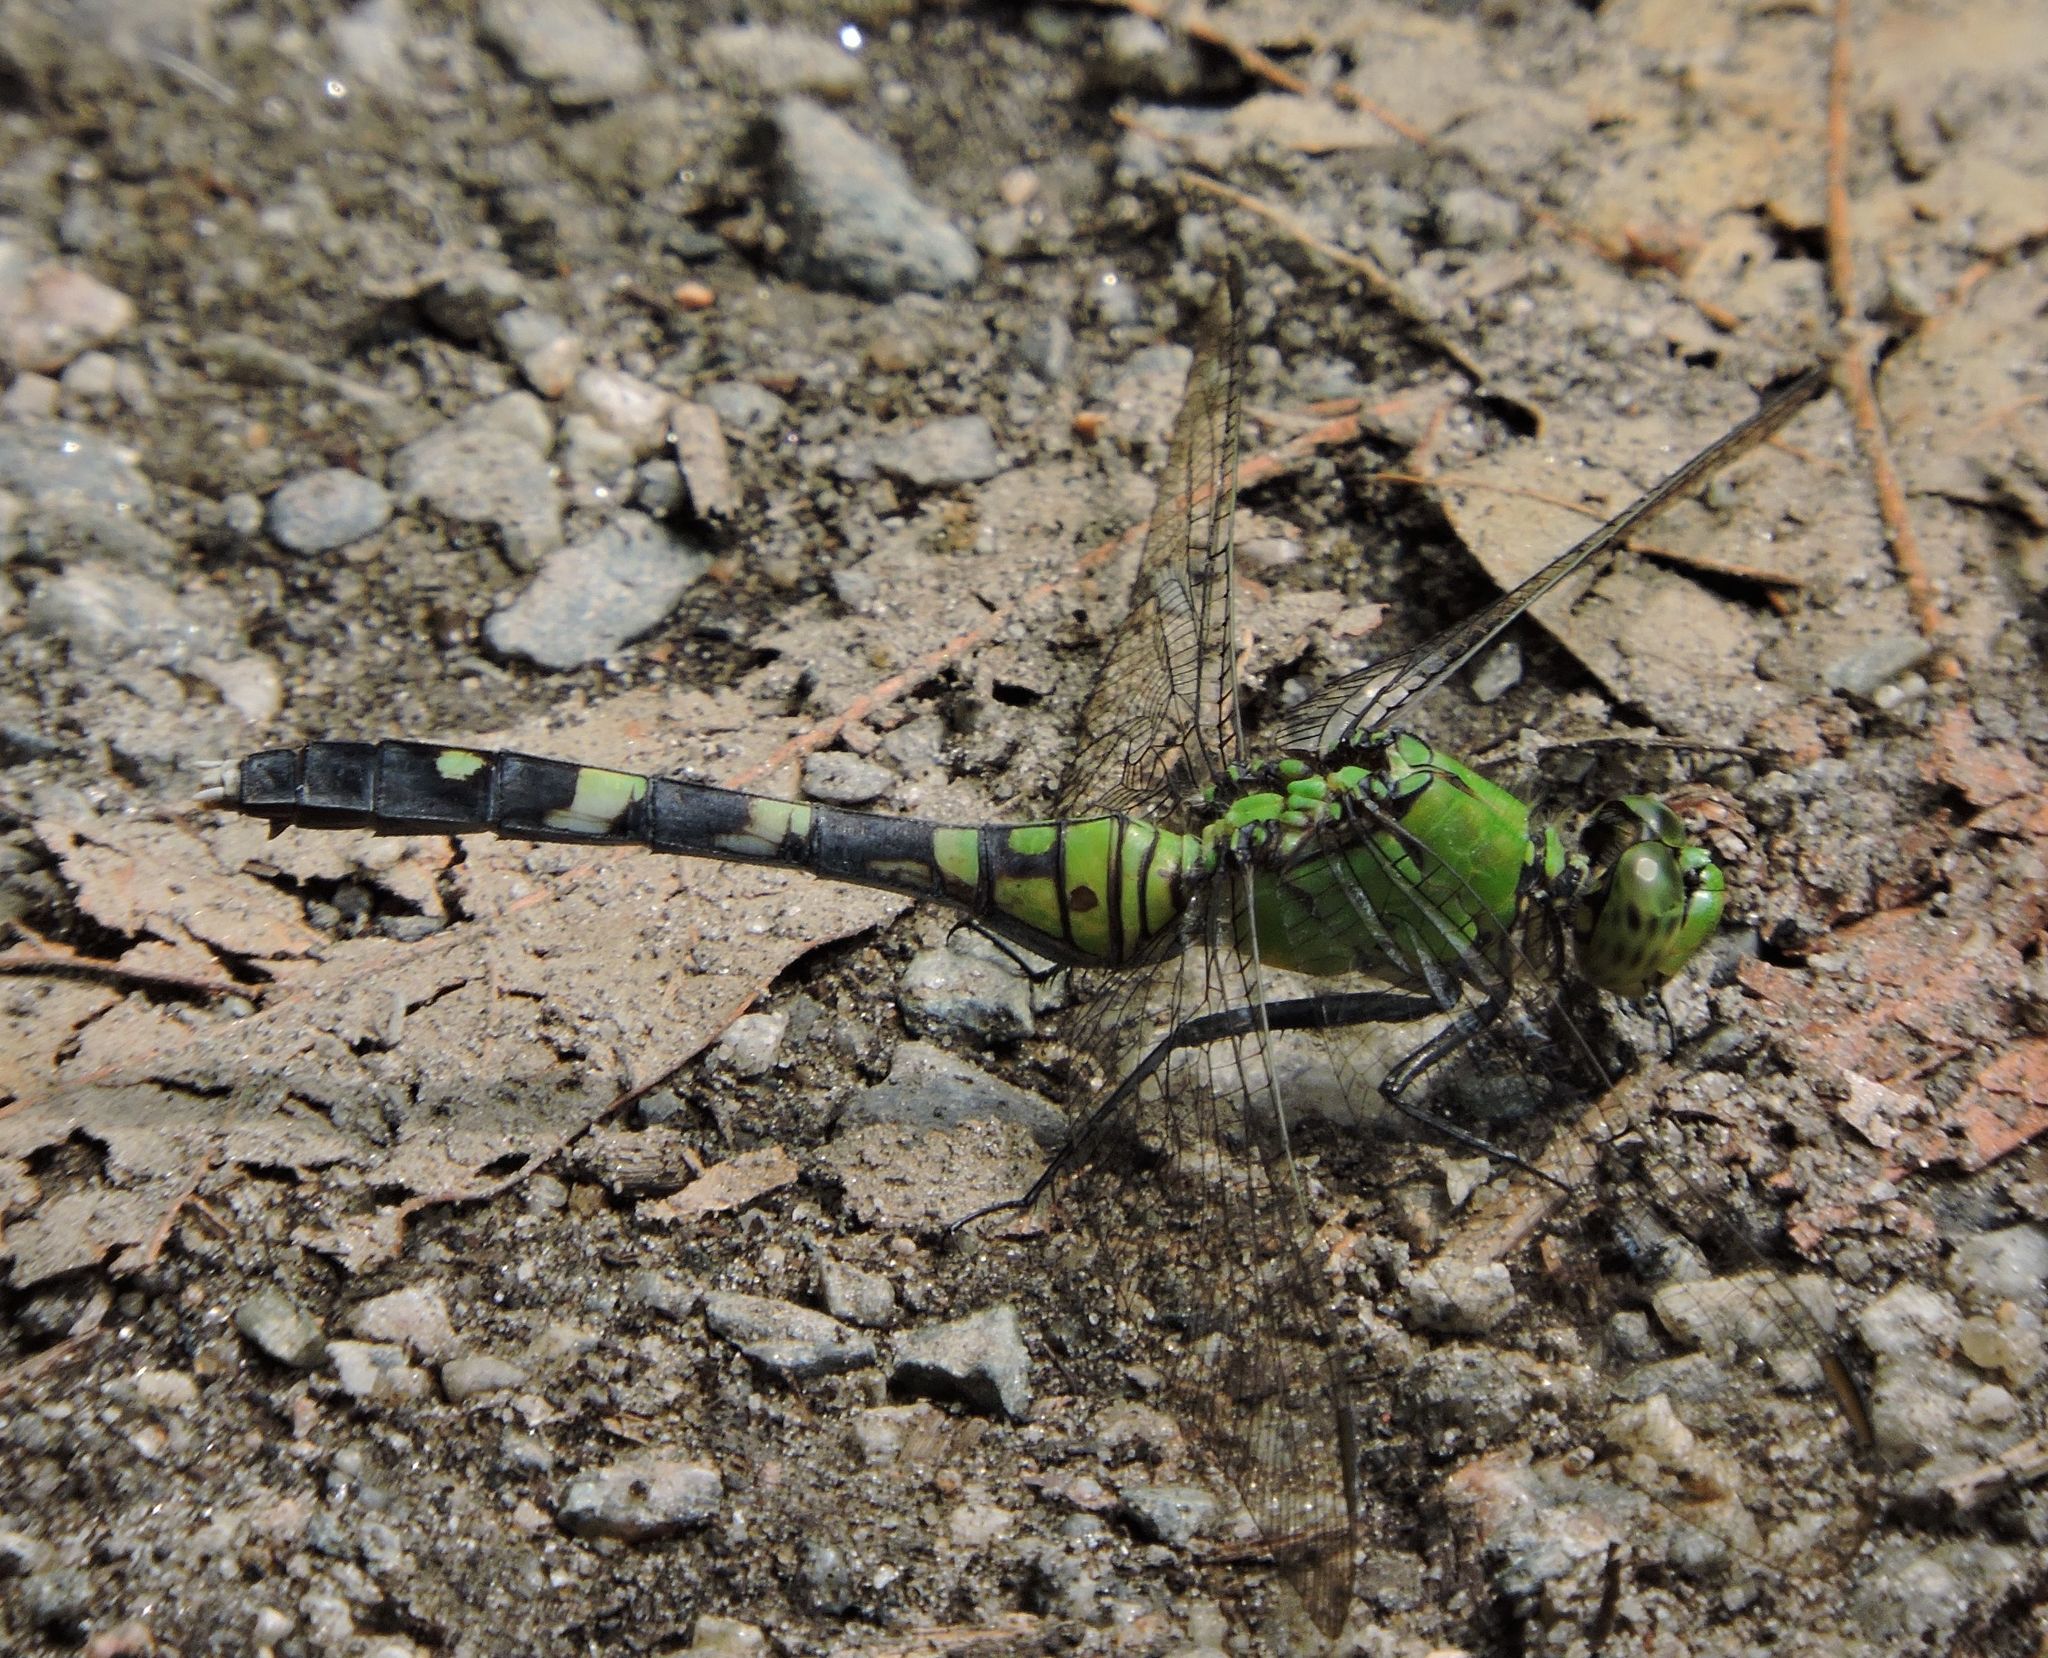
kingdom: Animalia
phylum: Arthropoda
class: Insecta
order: Odonata
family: Libellulidae
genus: Erythemis
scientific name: Erythemis simplicicollis
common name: Eastern pondhawk
